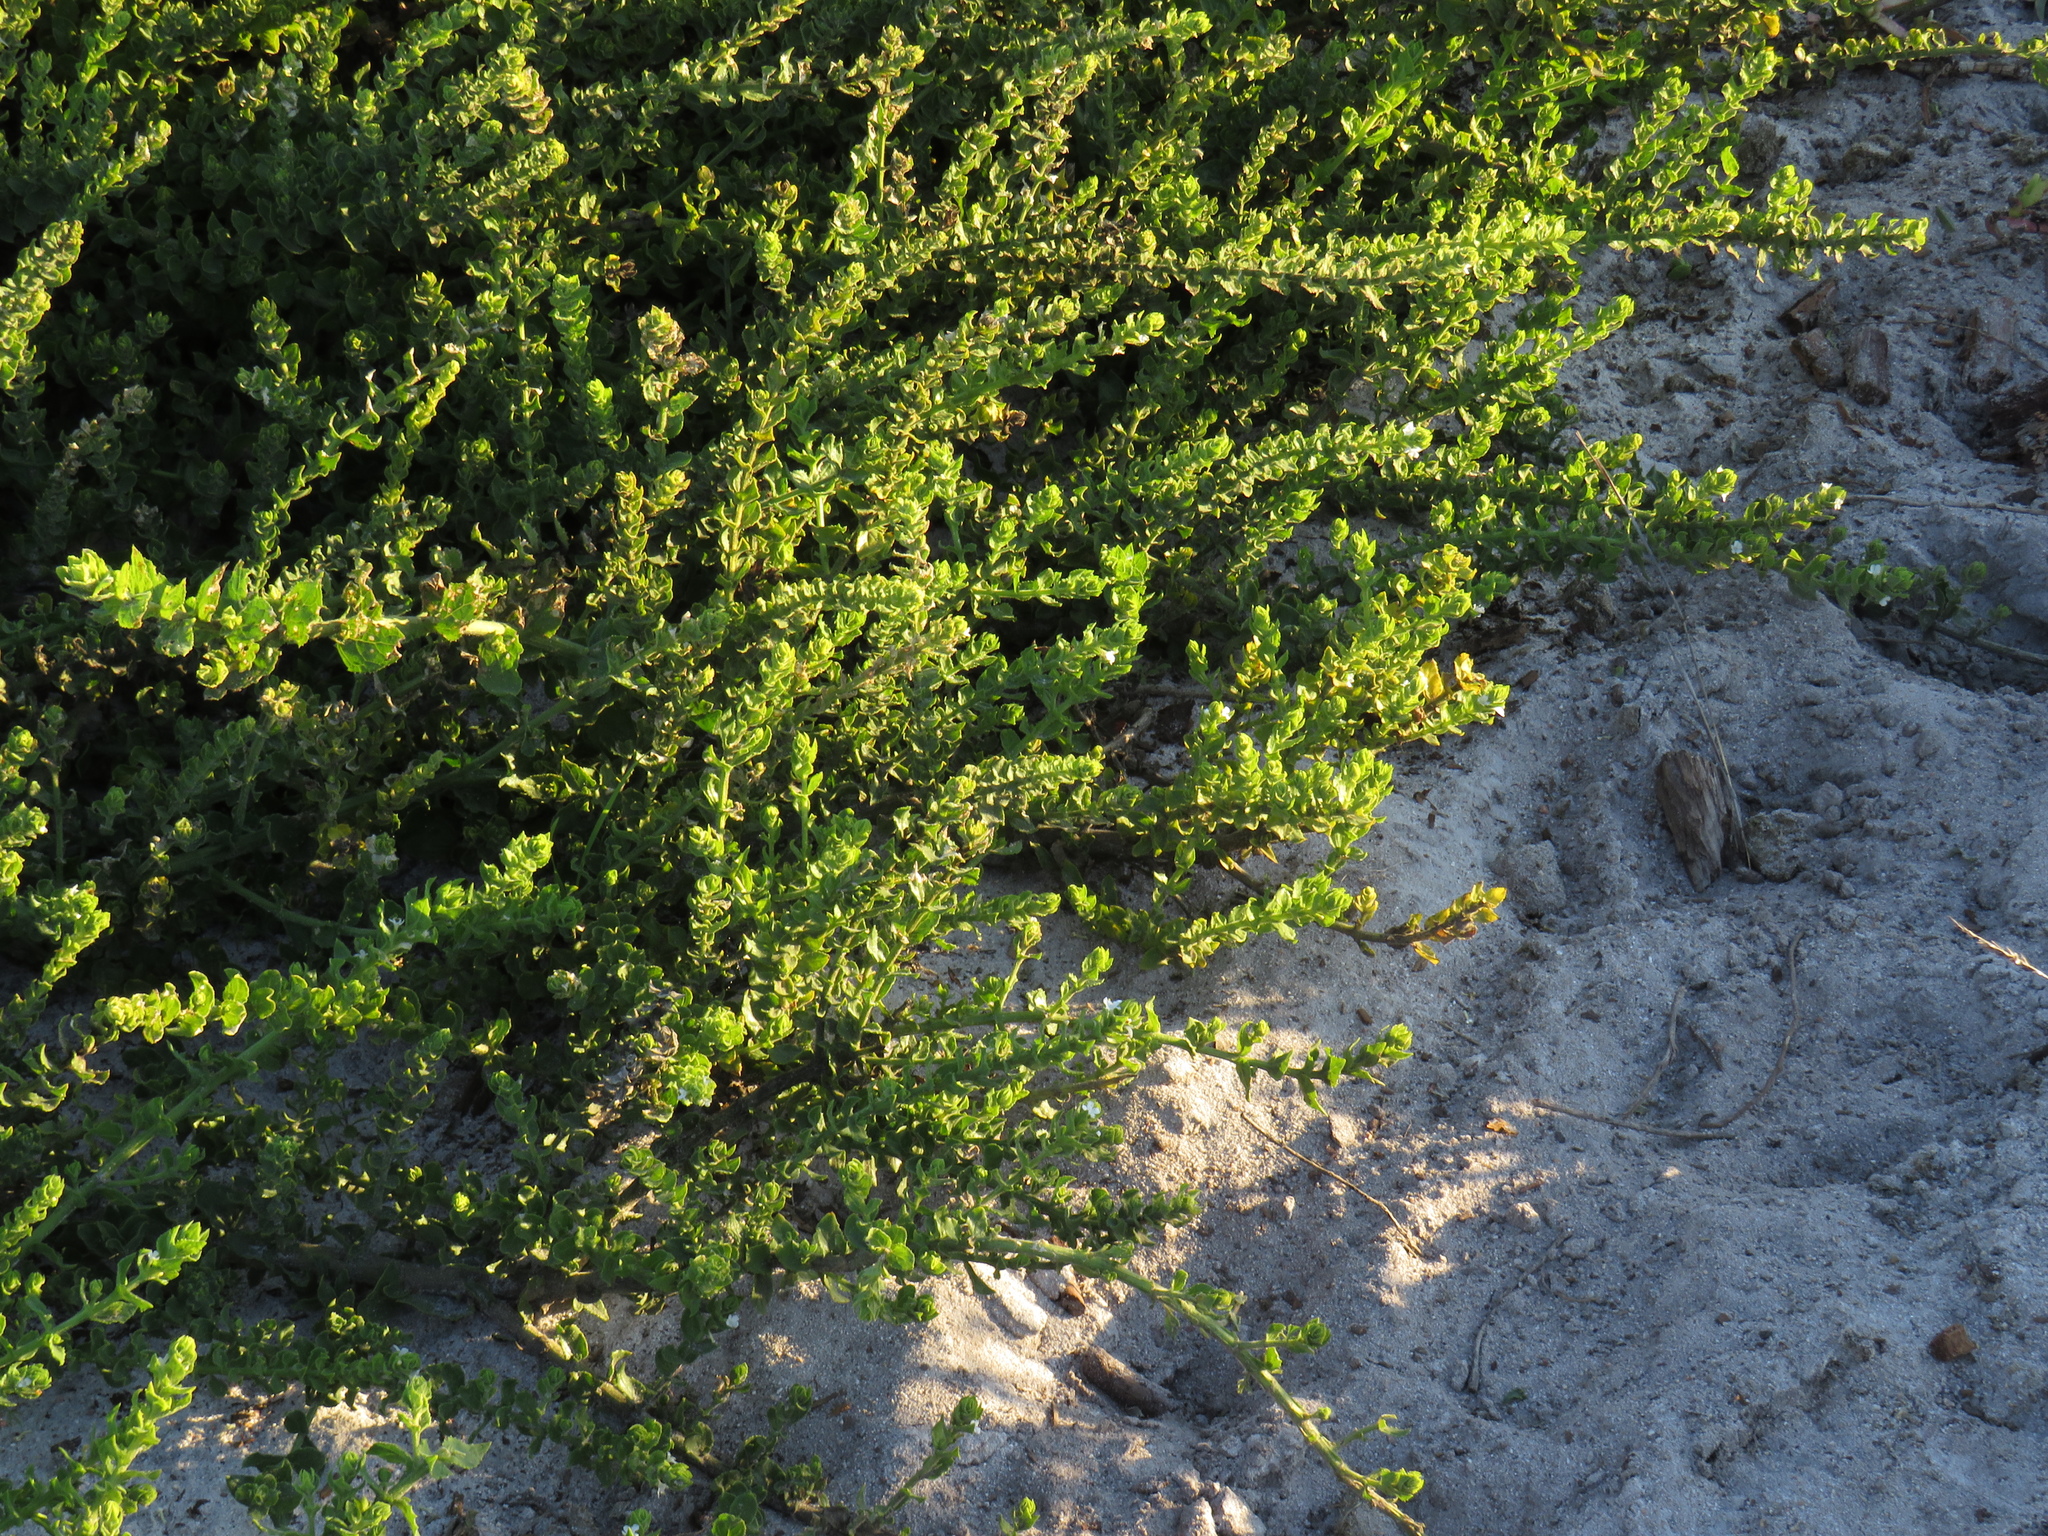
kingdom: Plantae
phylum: Tracheophyta
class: Magnoliopsida
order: Lamiales
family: Scrophulariaceae
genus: Oftia
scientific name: Oftia africana
